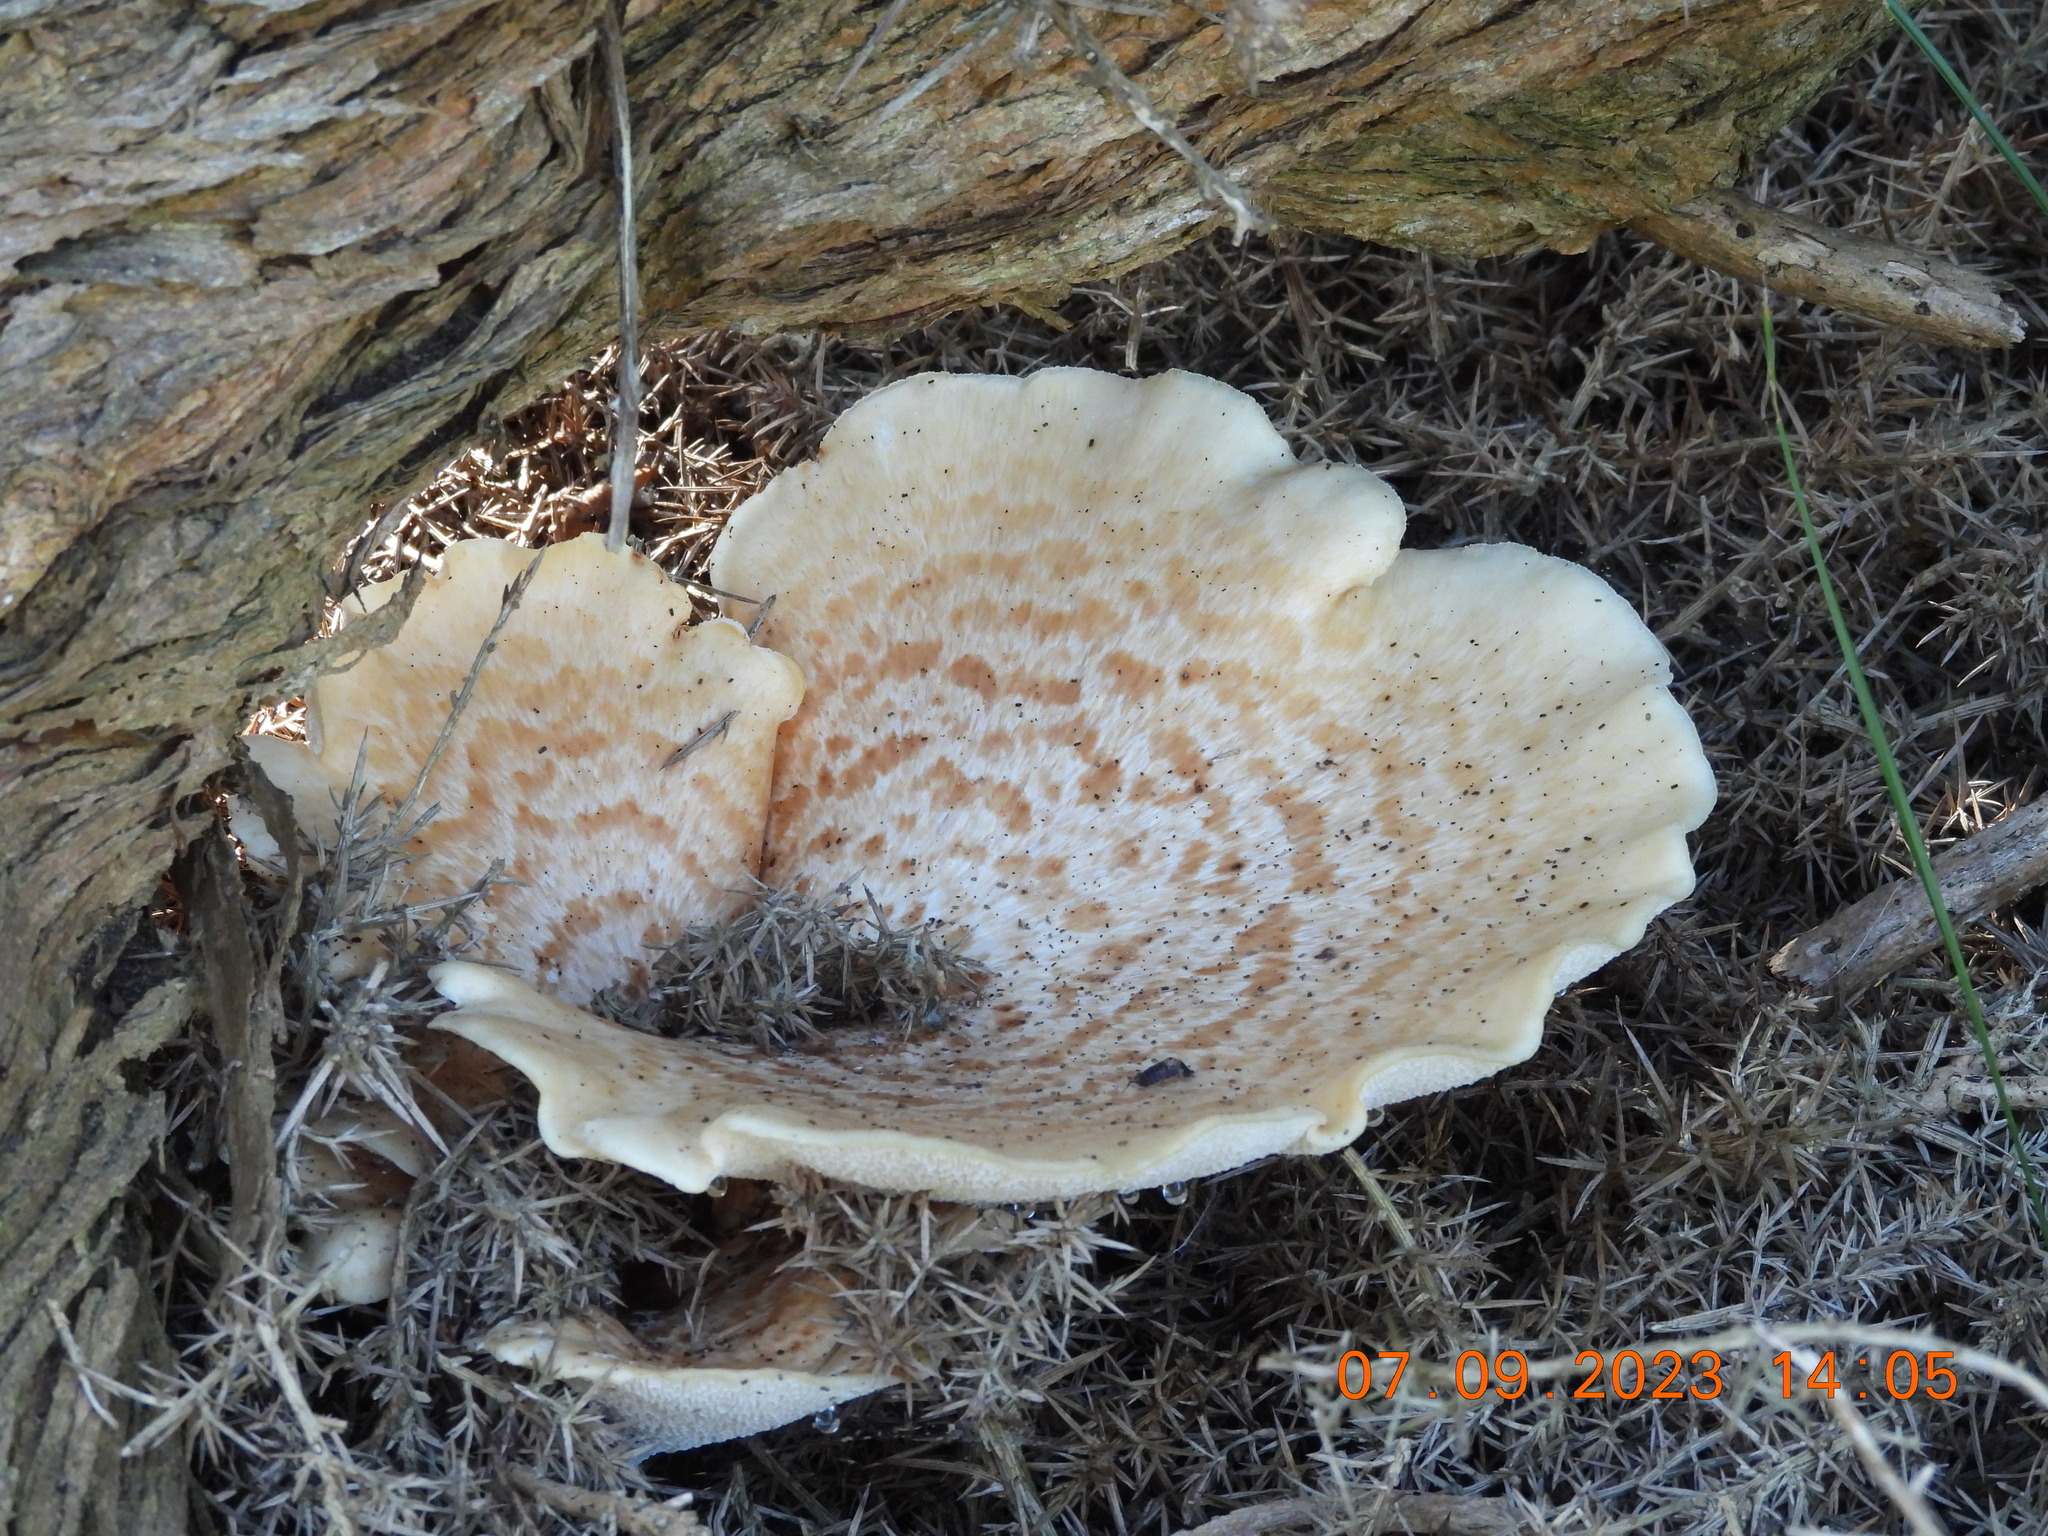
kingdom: Fungi
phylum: Basidiomycota
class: Agaricomycetes
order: Polyporales
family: Polyporaceae
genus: Cerioporus
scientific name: Cerioporus squamosus
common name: Dryad's saddle
